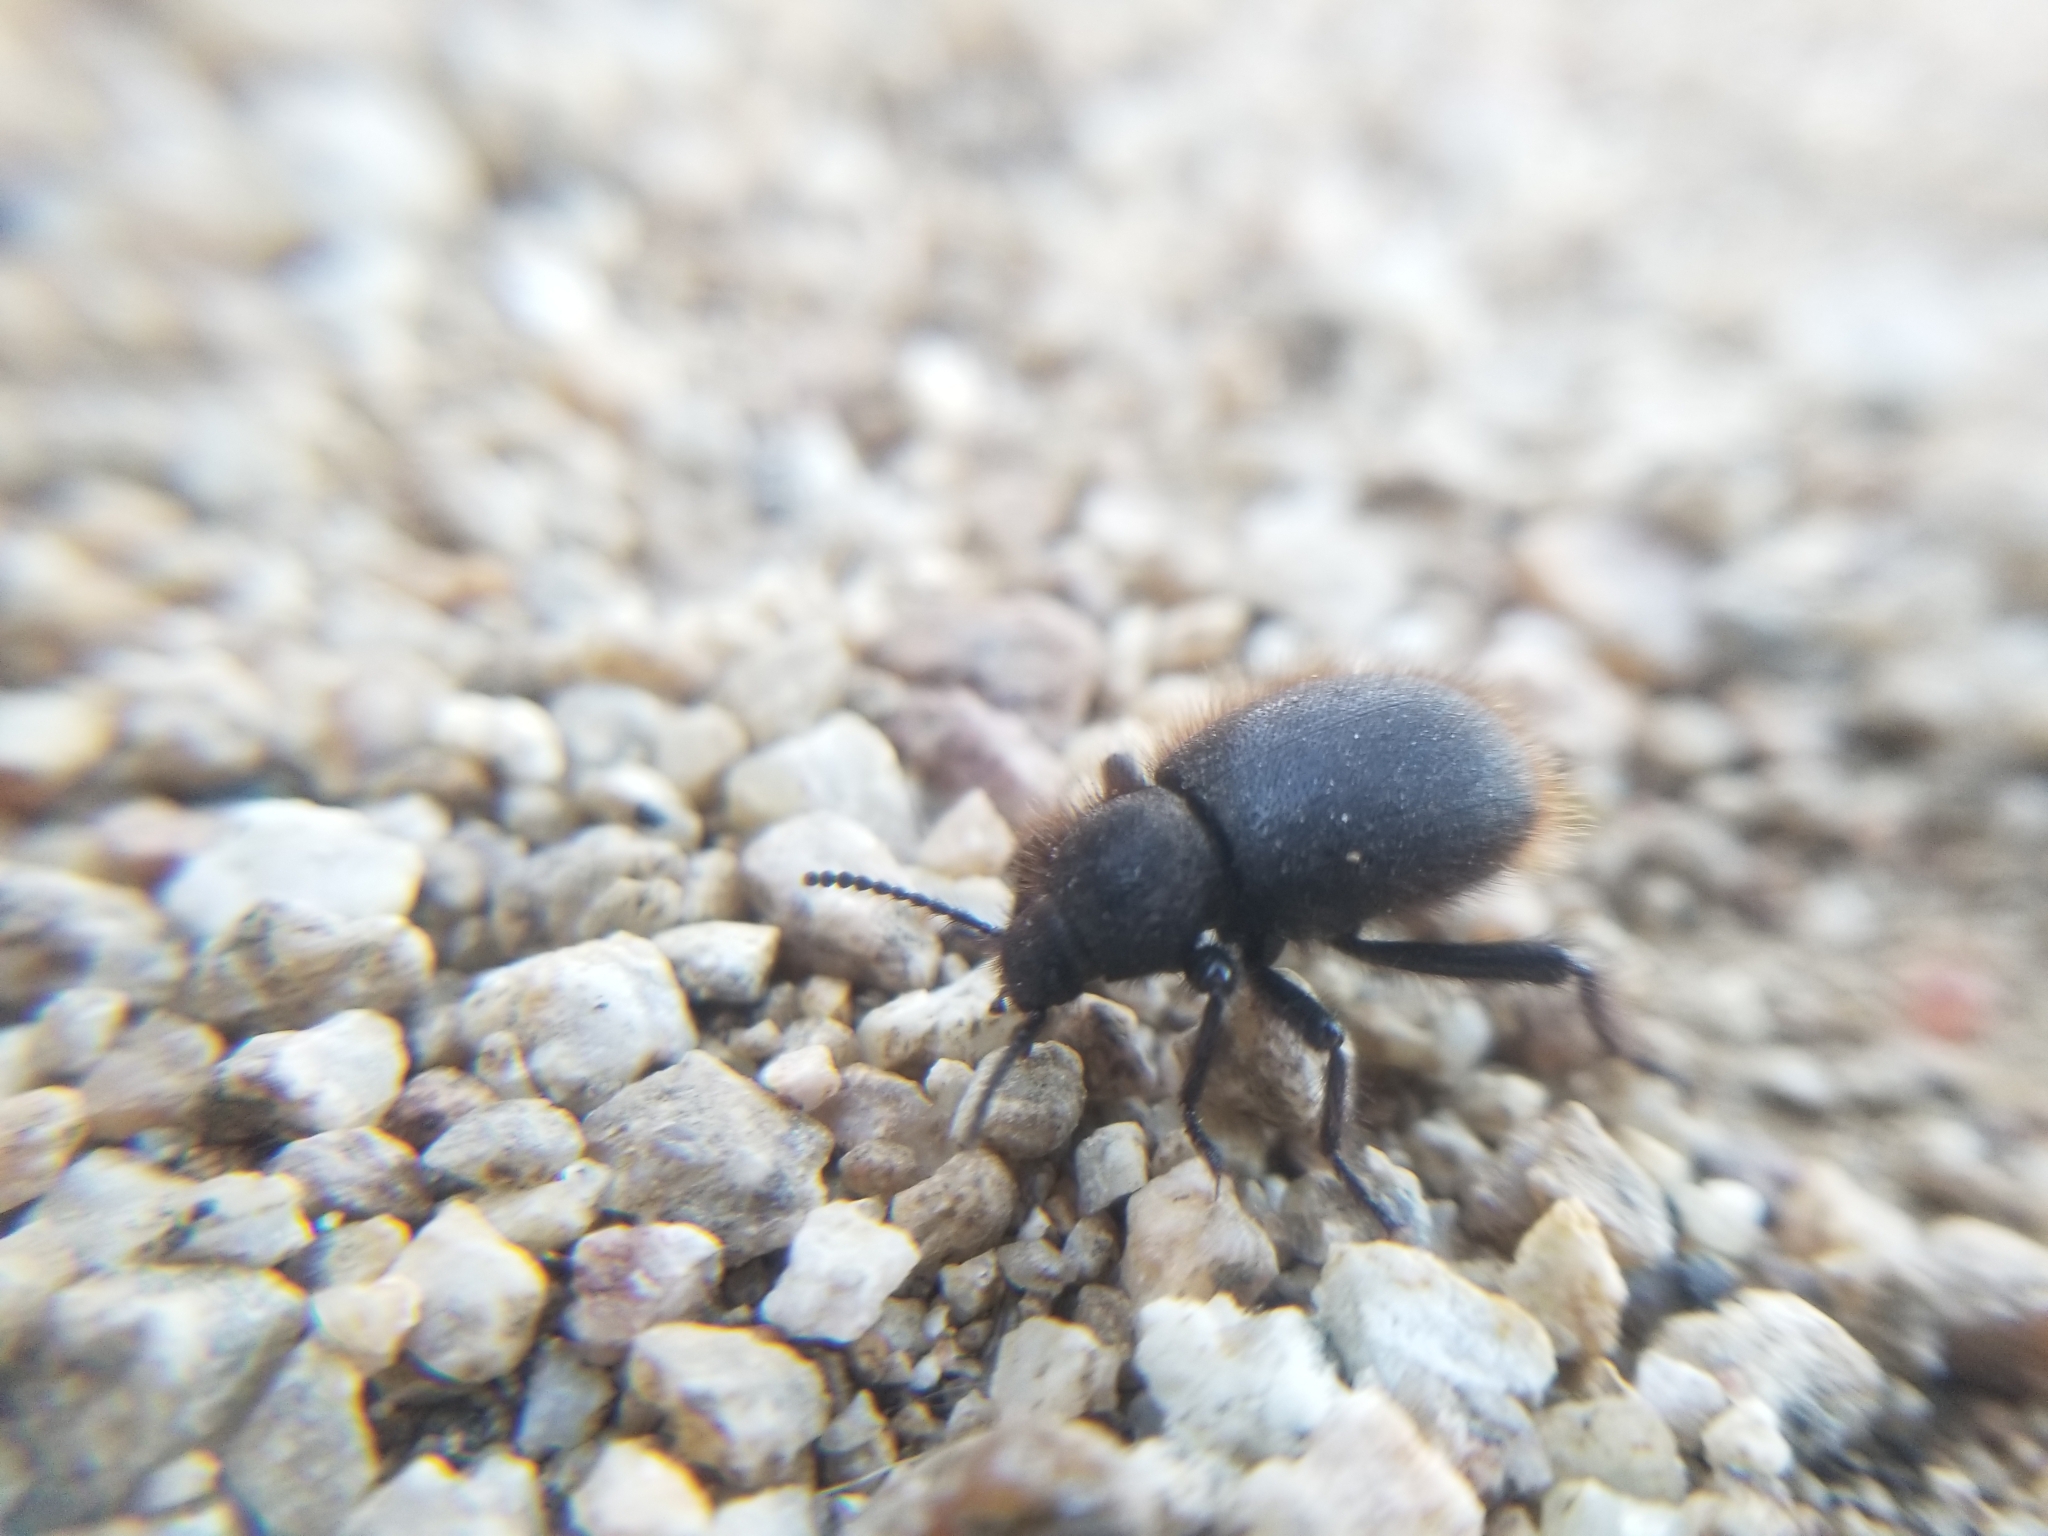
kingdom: Animalia
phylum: Arthropoda
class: Insecta
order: Coleoptera
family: Tenebrionidae
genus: Eleodes
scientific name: Eleodes osculans
